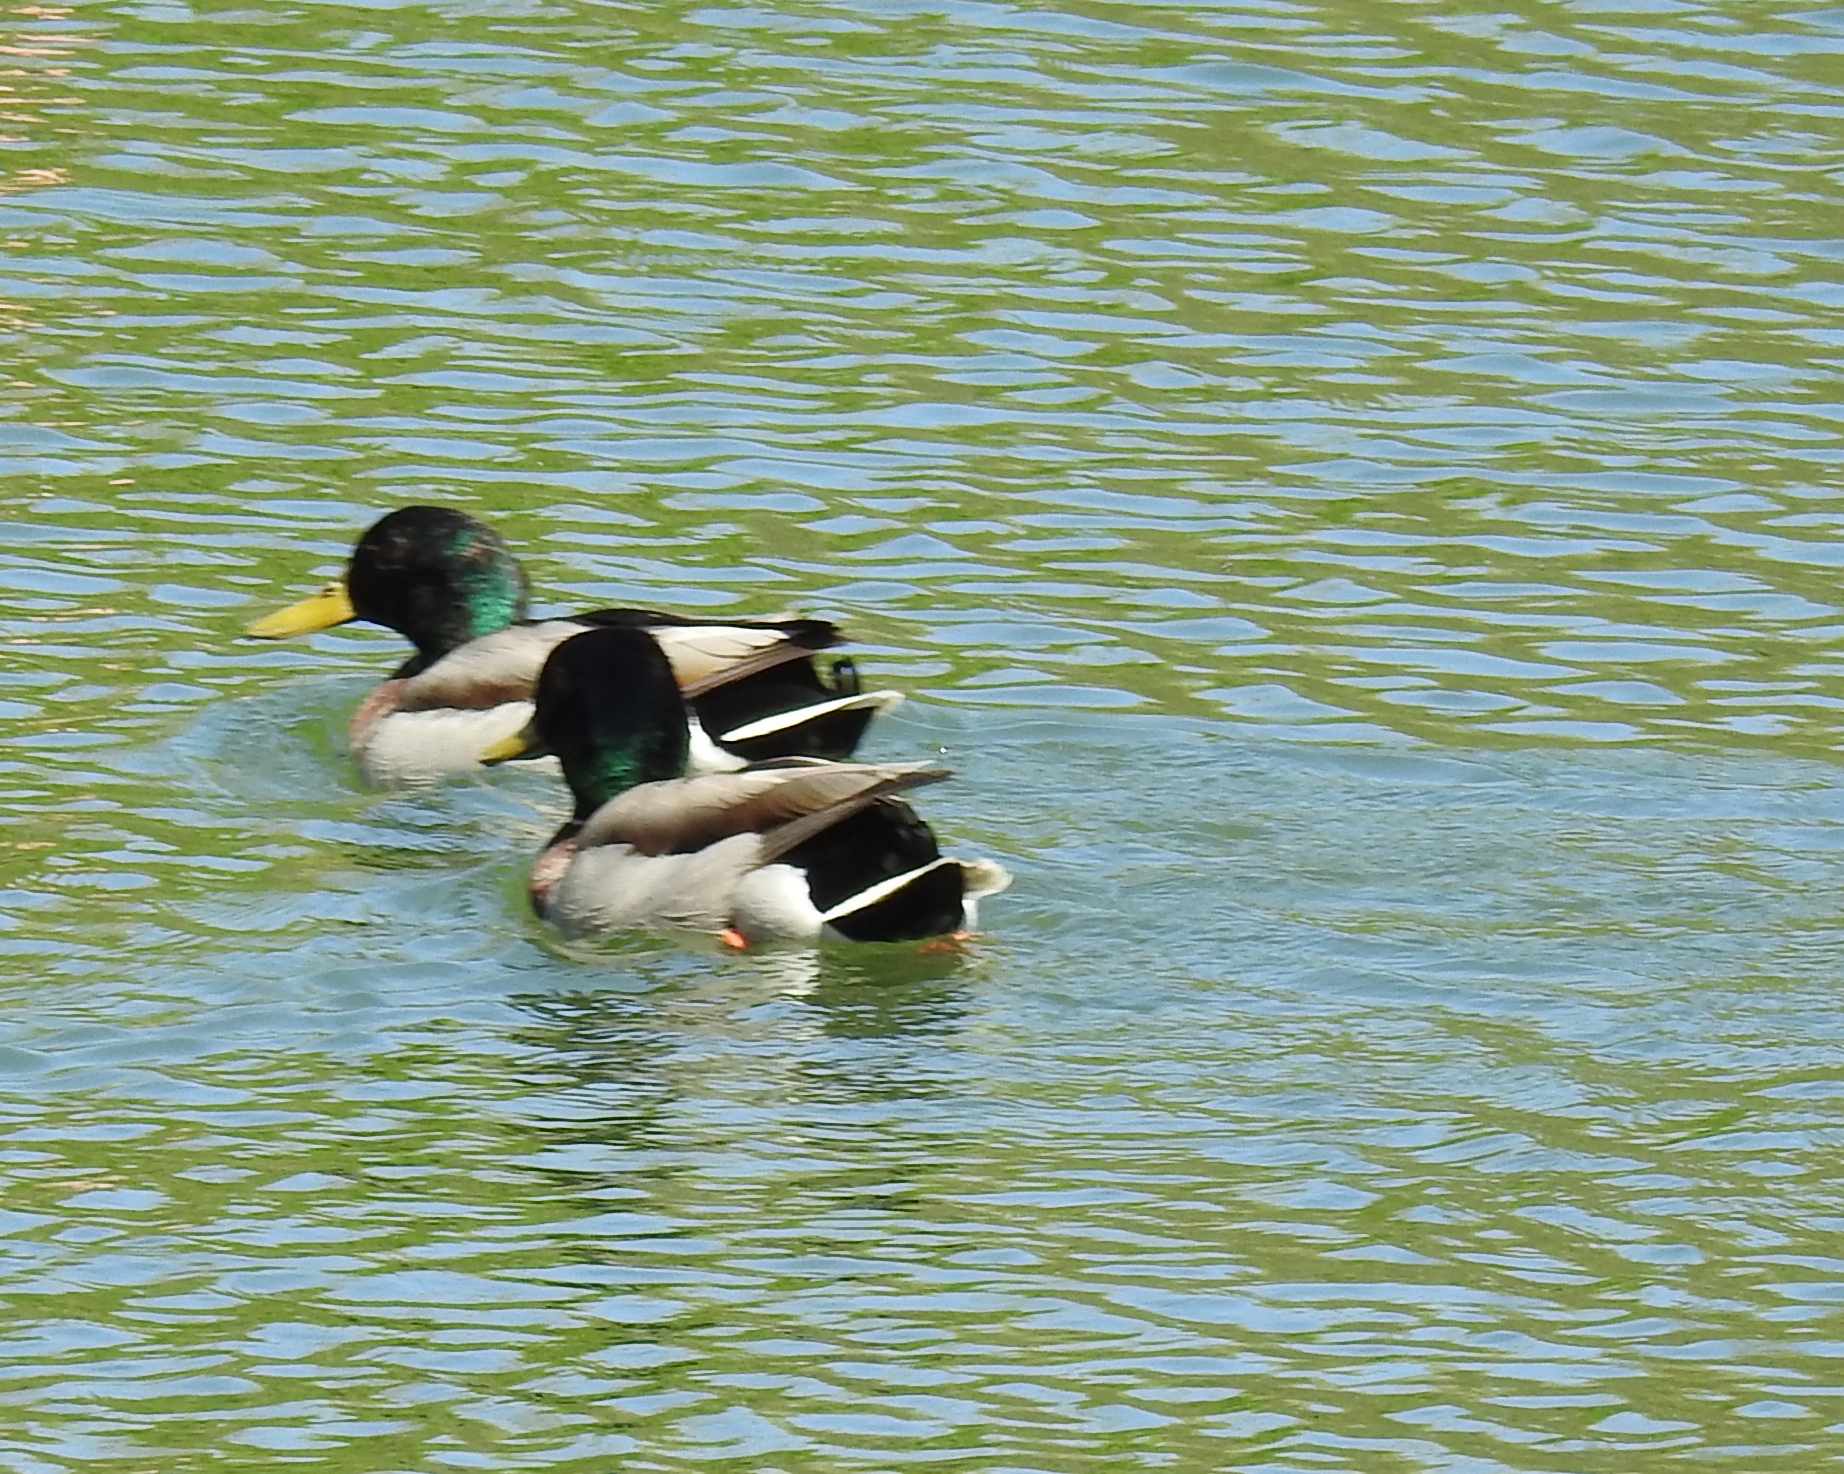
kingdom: Animalia
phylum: Chordata
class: Aves
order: Anseriformes
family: Anatidae
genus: Anas
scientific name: Anas platyrhynchos
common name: Mallard
